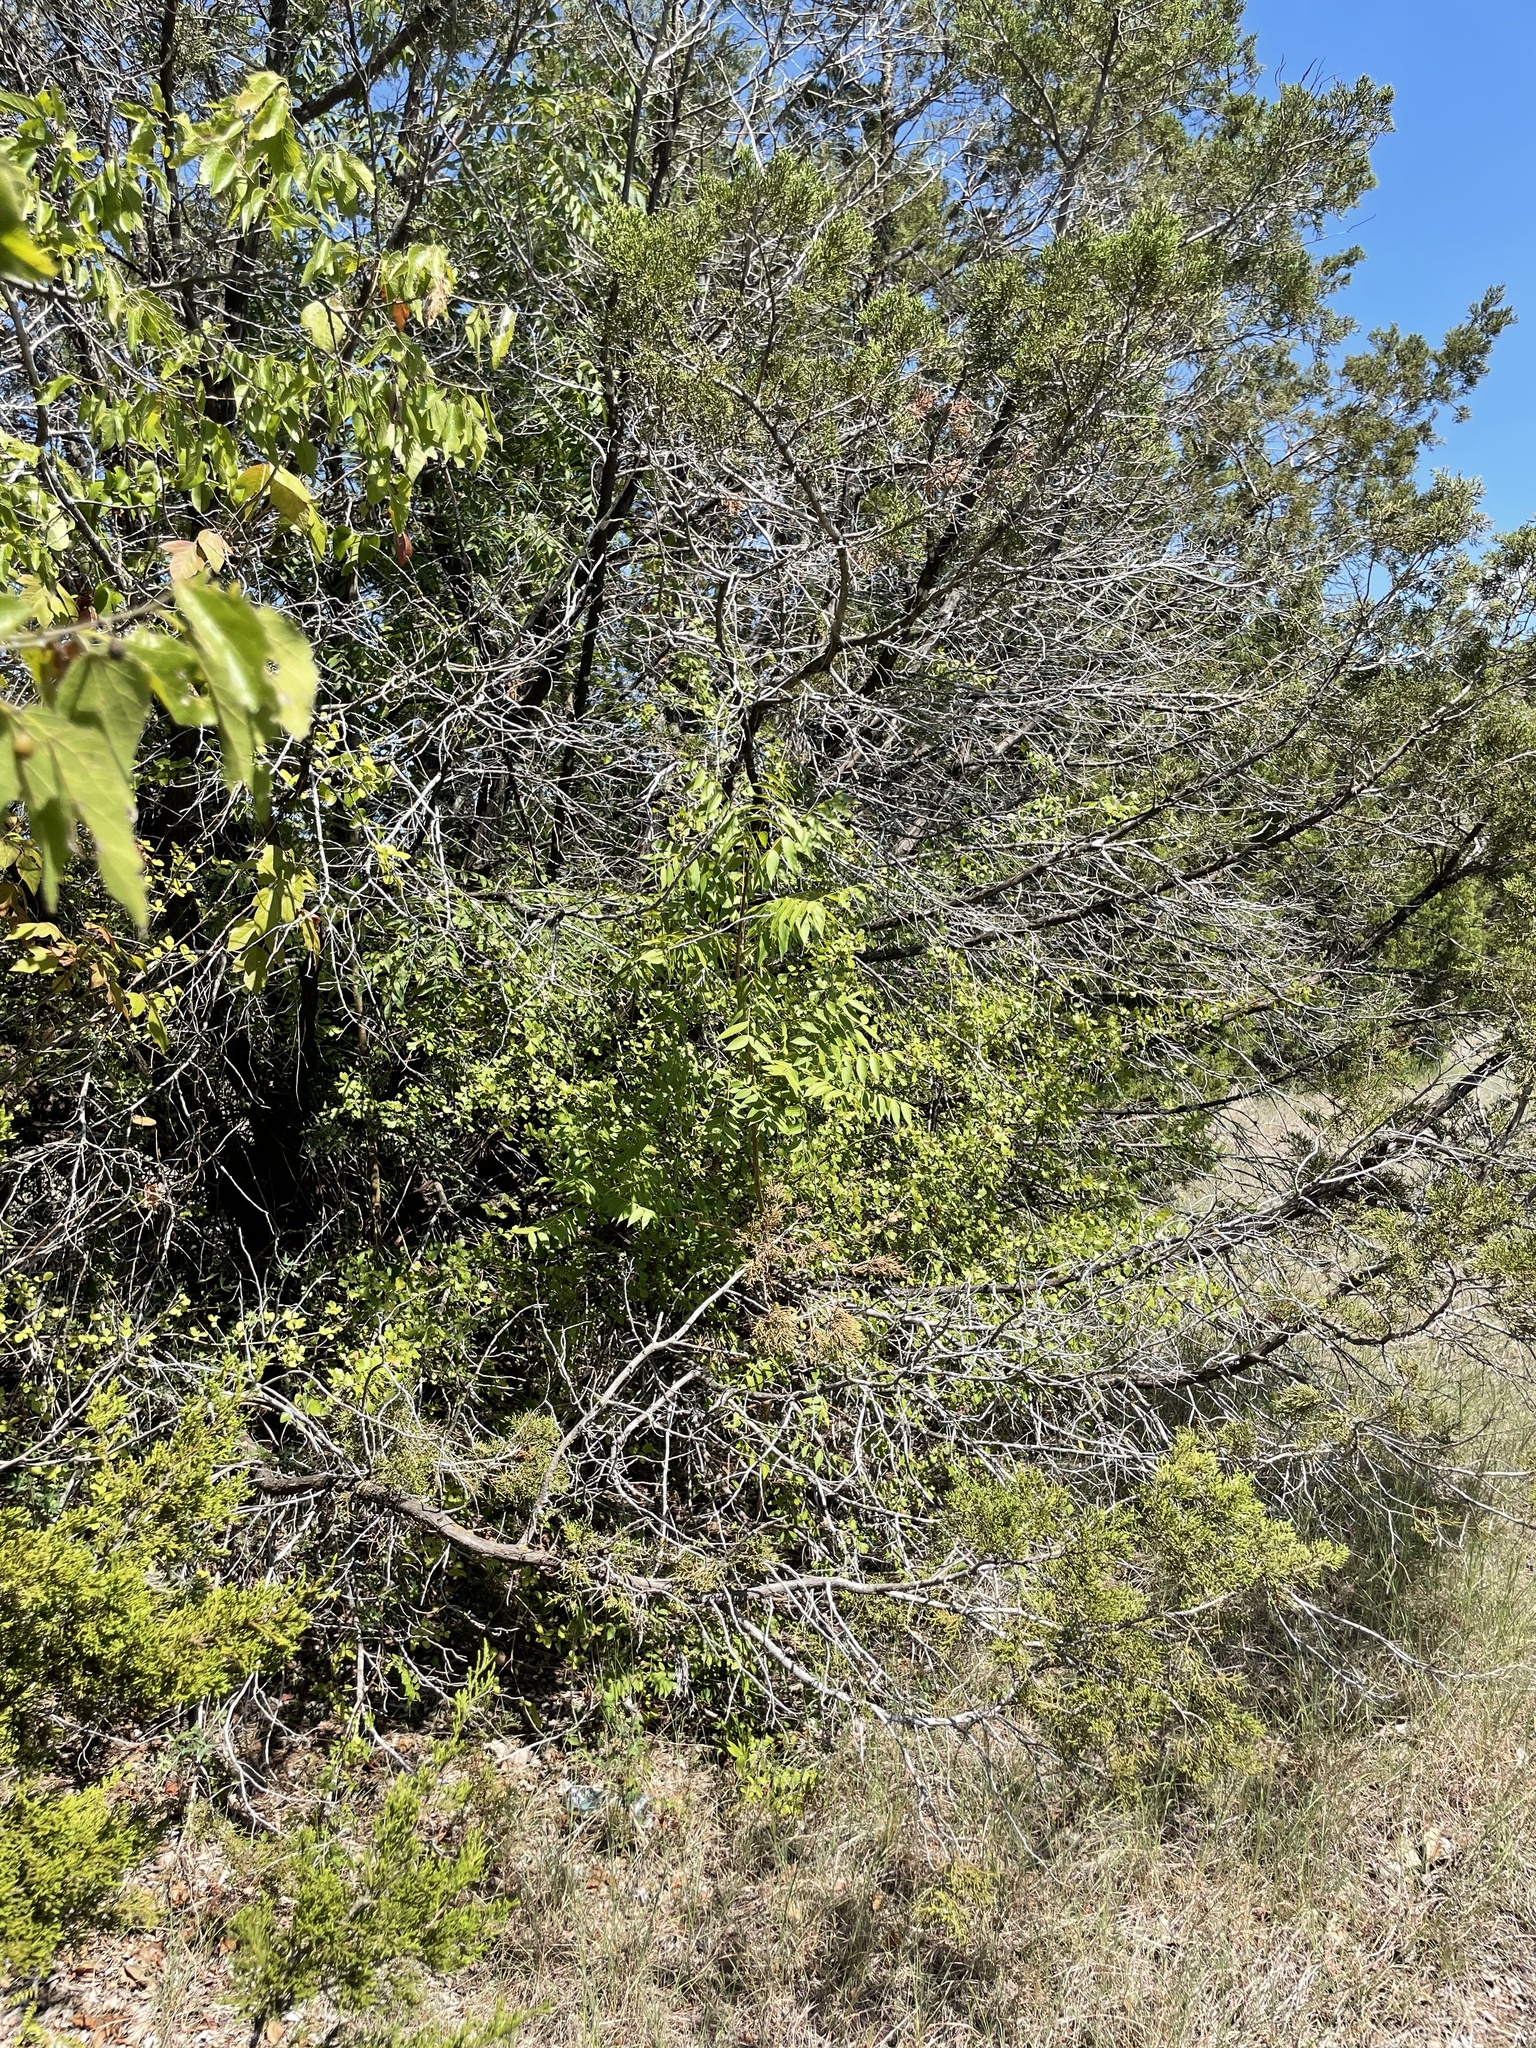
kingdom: Plantae
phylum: Tracheophyta
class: Magnoliopsida
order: Sapindales
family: Anacardiaceae
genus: Pistacia
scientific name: Pistacia chinensis
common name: Chinese pistache
